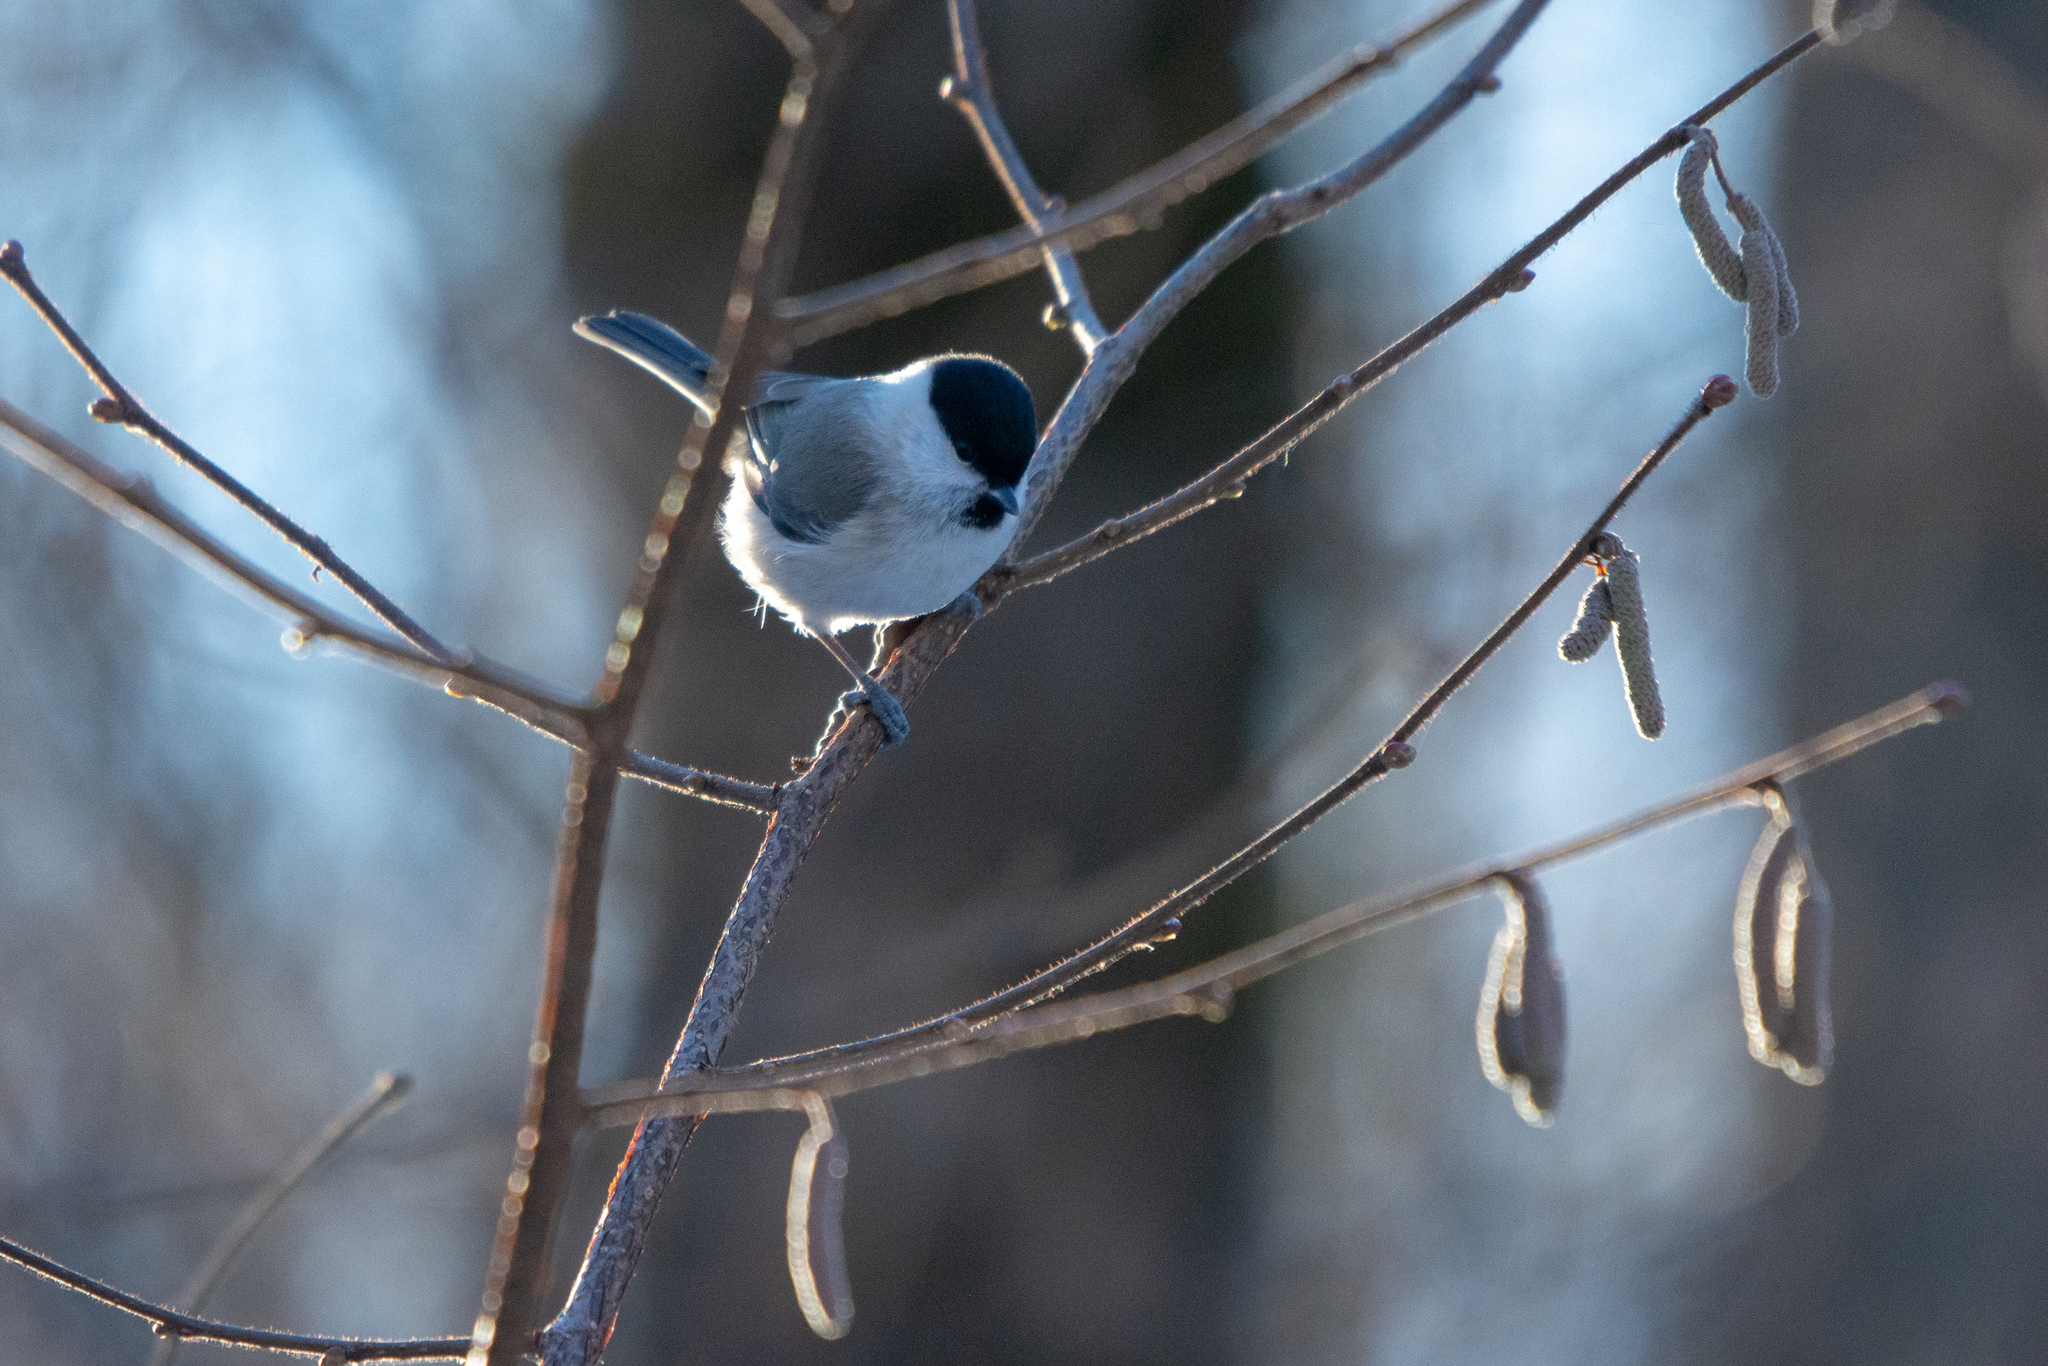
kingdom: Animalia
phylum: Chordata
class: Aves
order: Passeriformes
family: Paridae
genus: Poecile
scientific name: Poecile palustris
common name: Marsh tit
